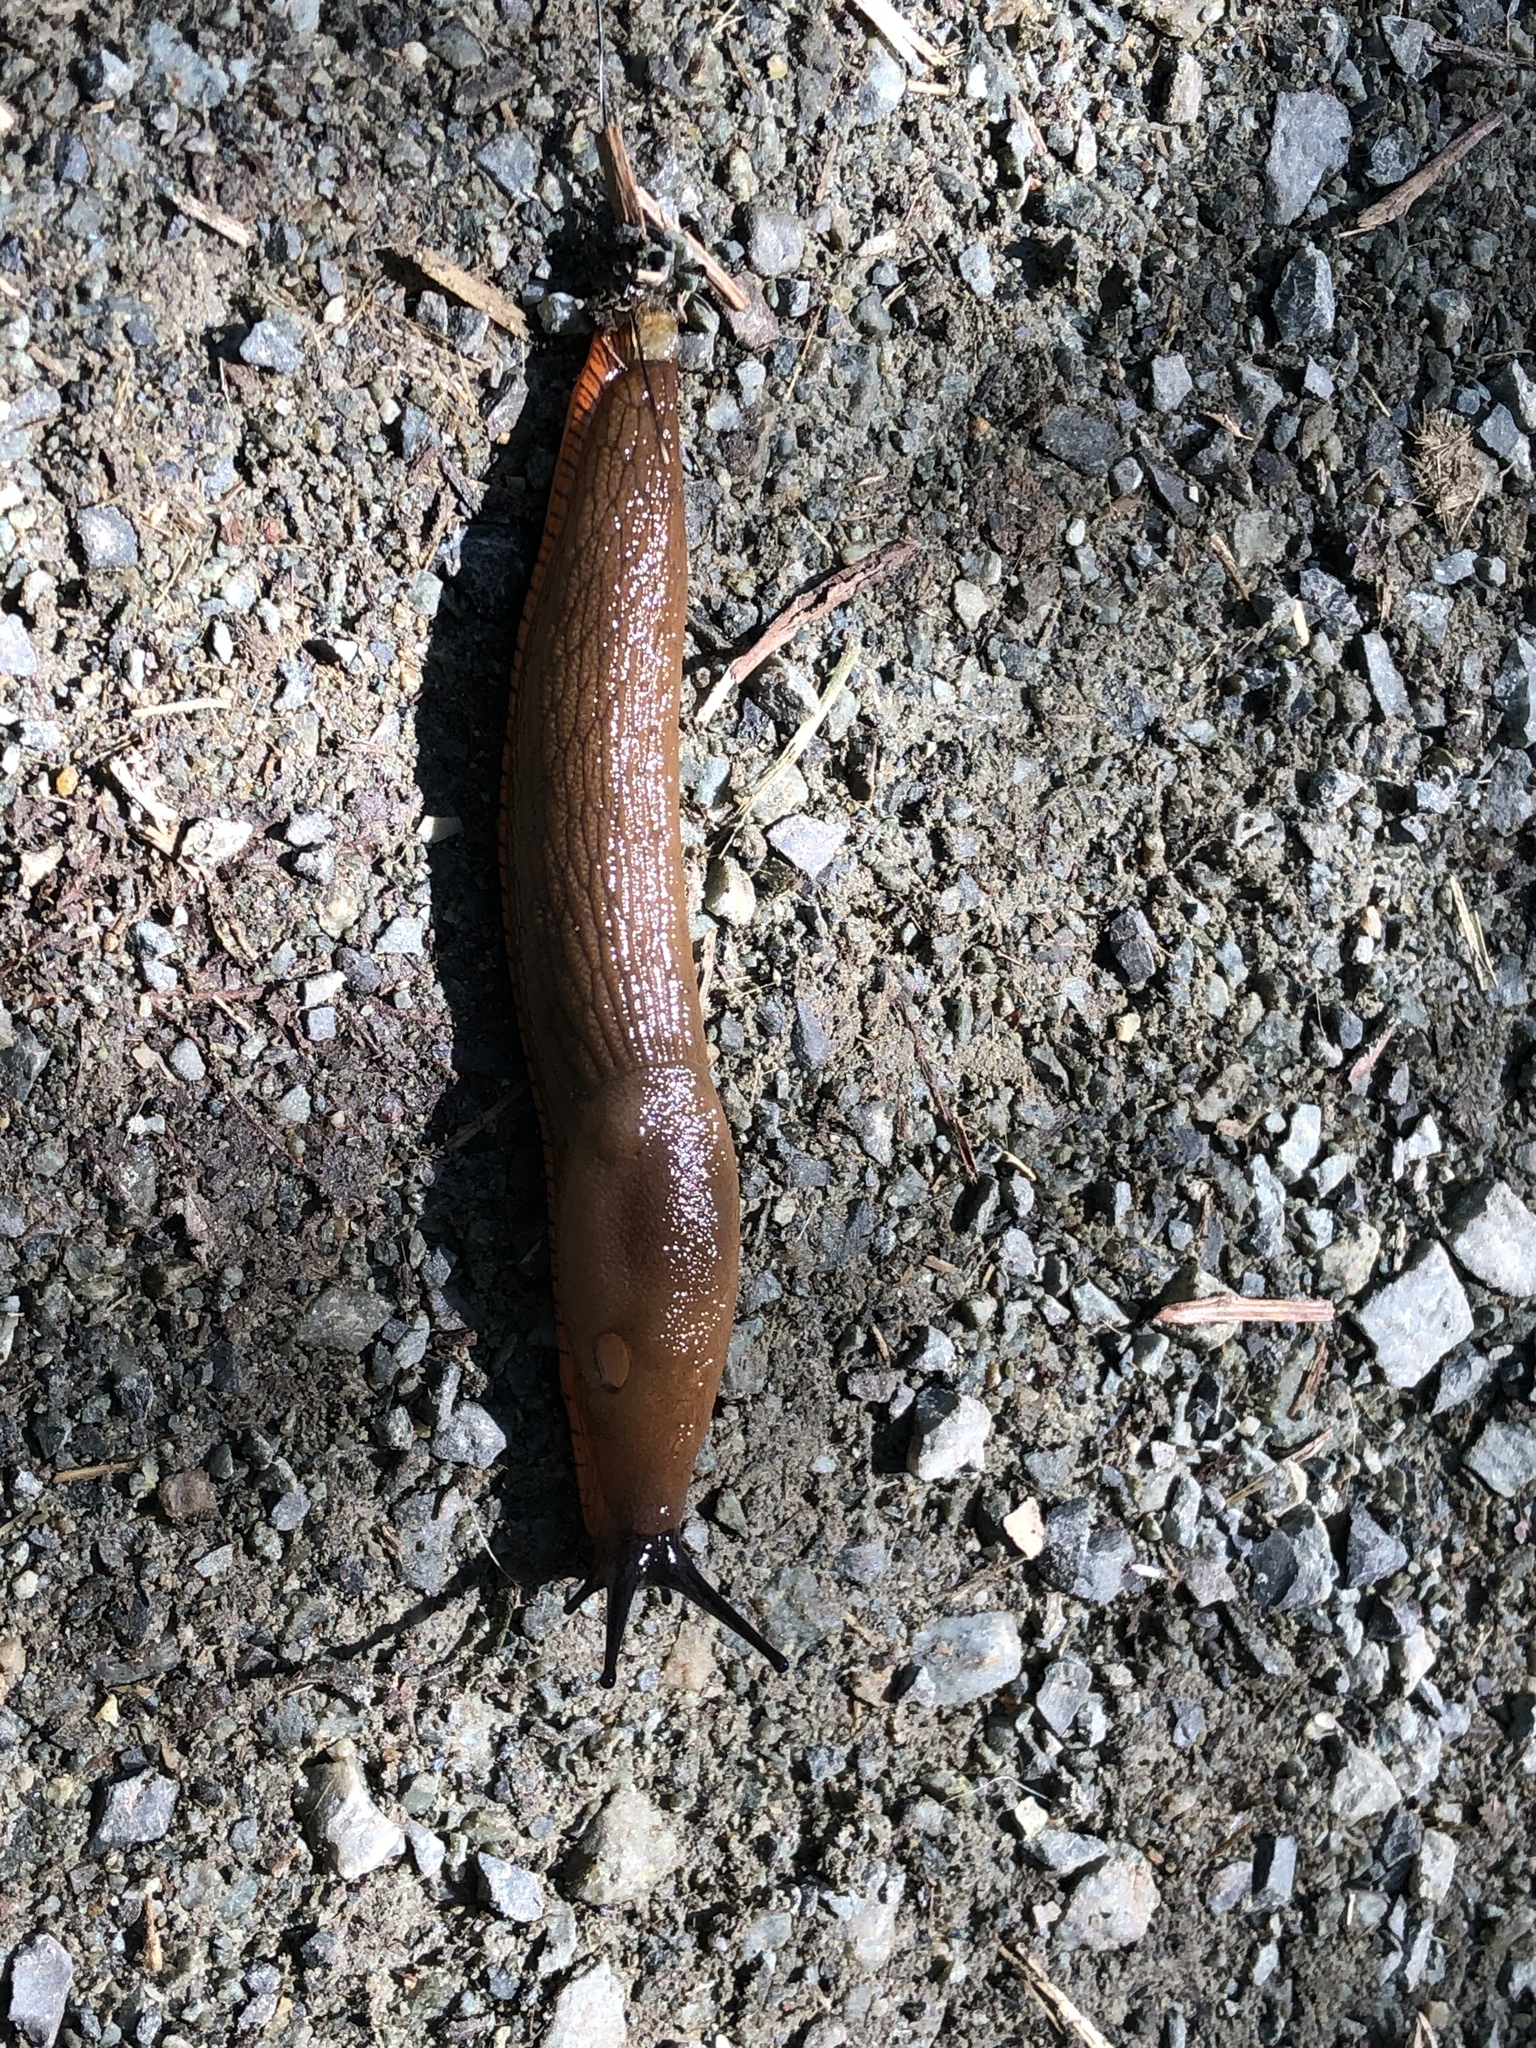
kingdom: Animalia
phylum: Mollusca
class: Gastropoda
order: Stylommatophora
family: Arionidae
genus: Arion
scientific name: Arion rufus
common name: Chocolate arion
